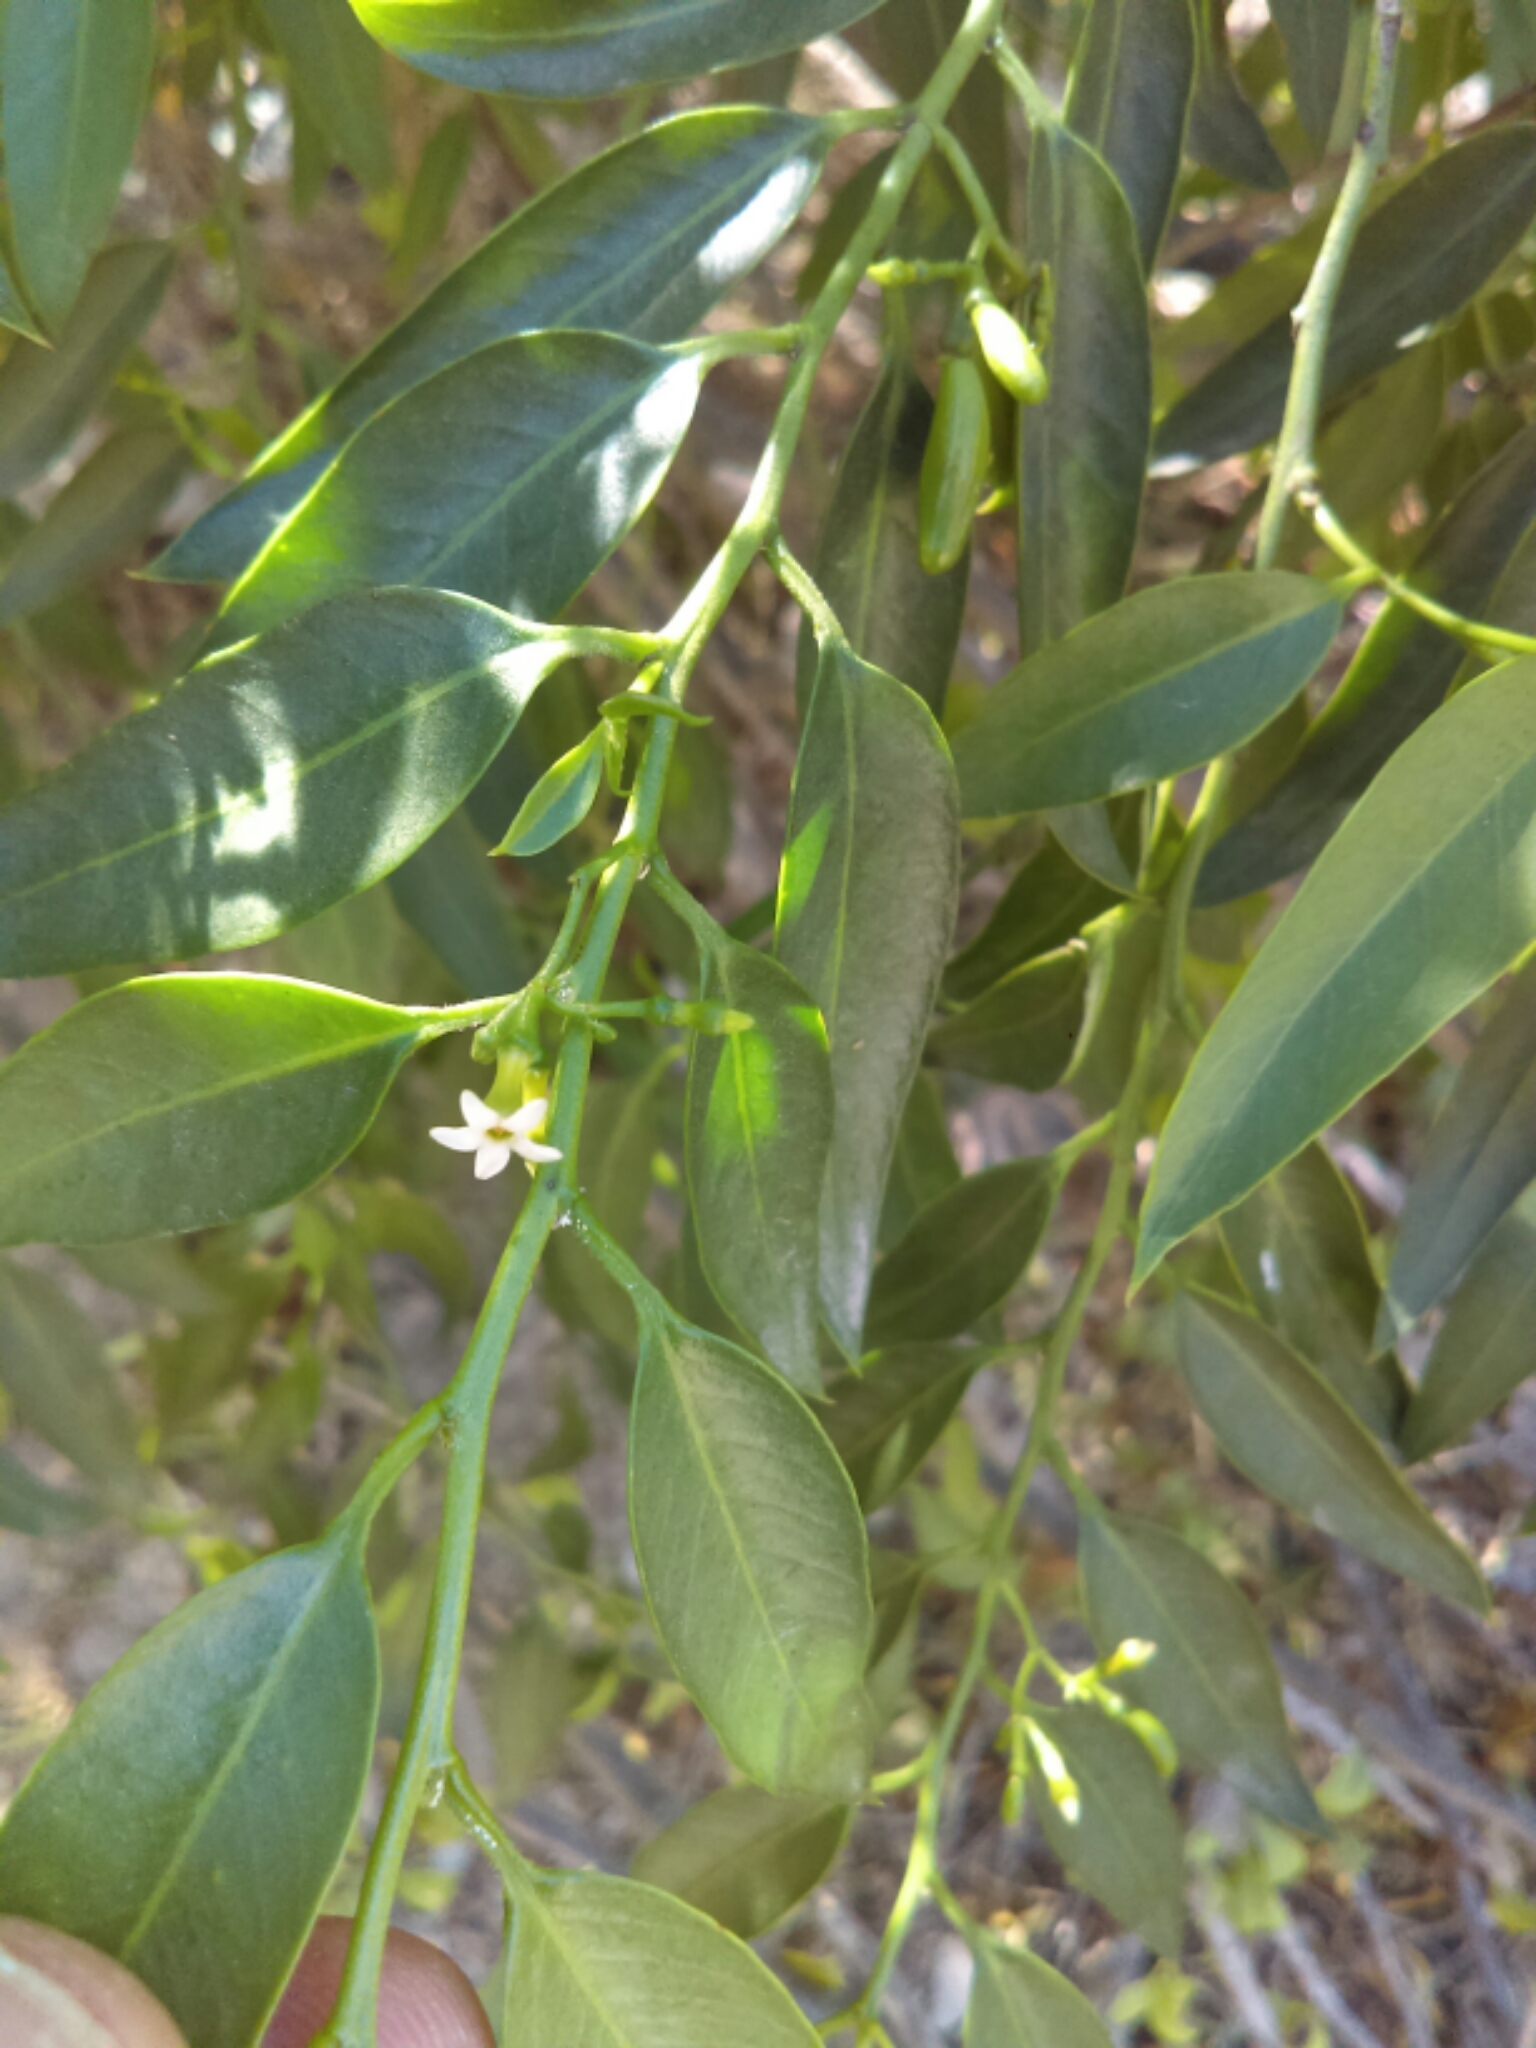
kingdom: Plantae
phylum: Tracheophyta
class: Magnoliopsida
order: Gentianales
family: Apocynaceae
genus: Vallesia
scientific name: Vallesia glabra
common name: Pearlberry
